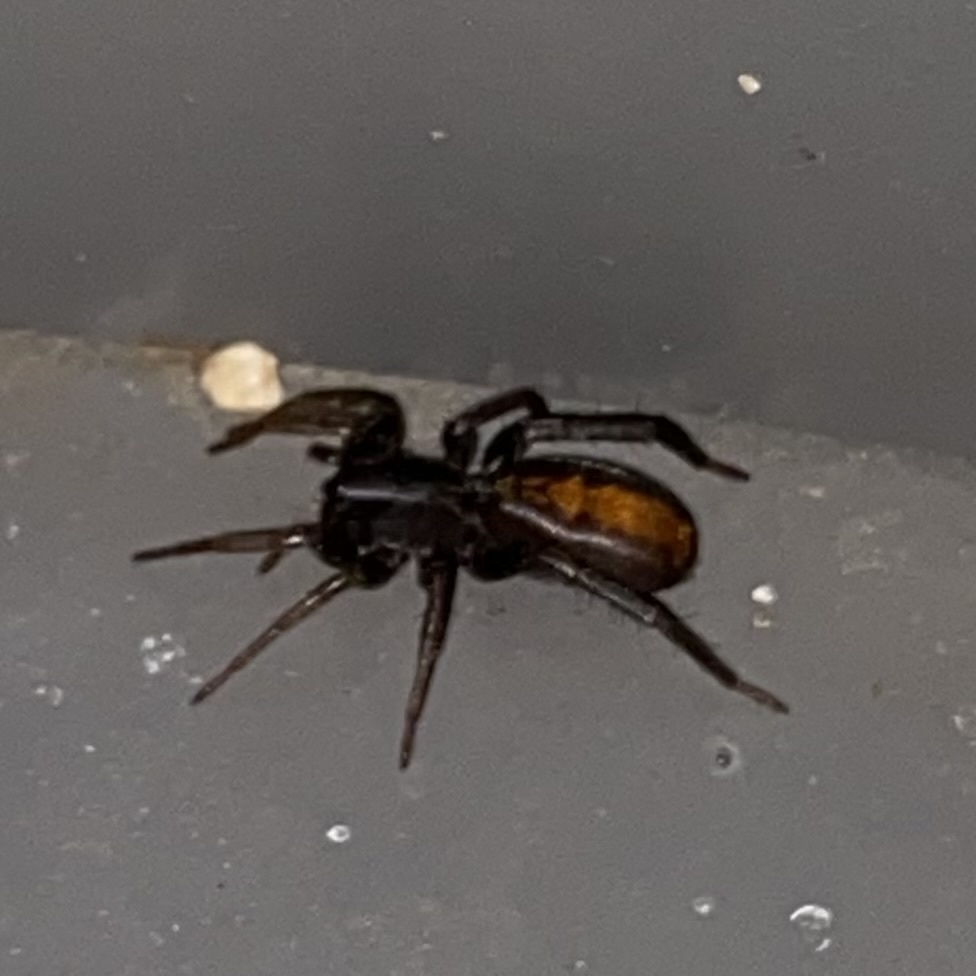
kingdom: Animalia
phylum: Arthropoda
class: Arachnida
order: Araneae
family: Corinnidae
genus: Castianeira
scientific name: Castianeira
